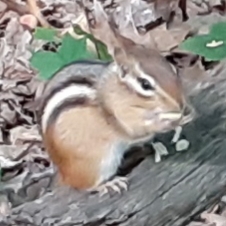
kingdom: Animalia
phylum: Chordata
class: Mammalia
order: Rodentia
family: Sciuridae
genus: Tamias
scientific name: Tamias striatus
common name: Eastern chipmunk
